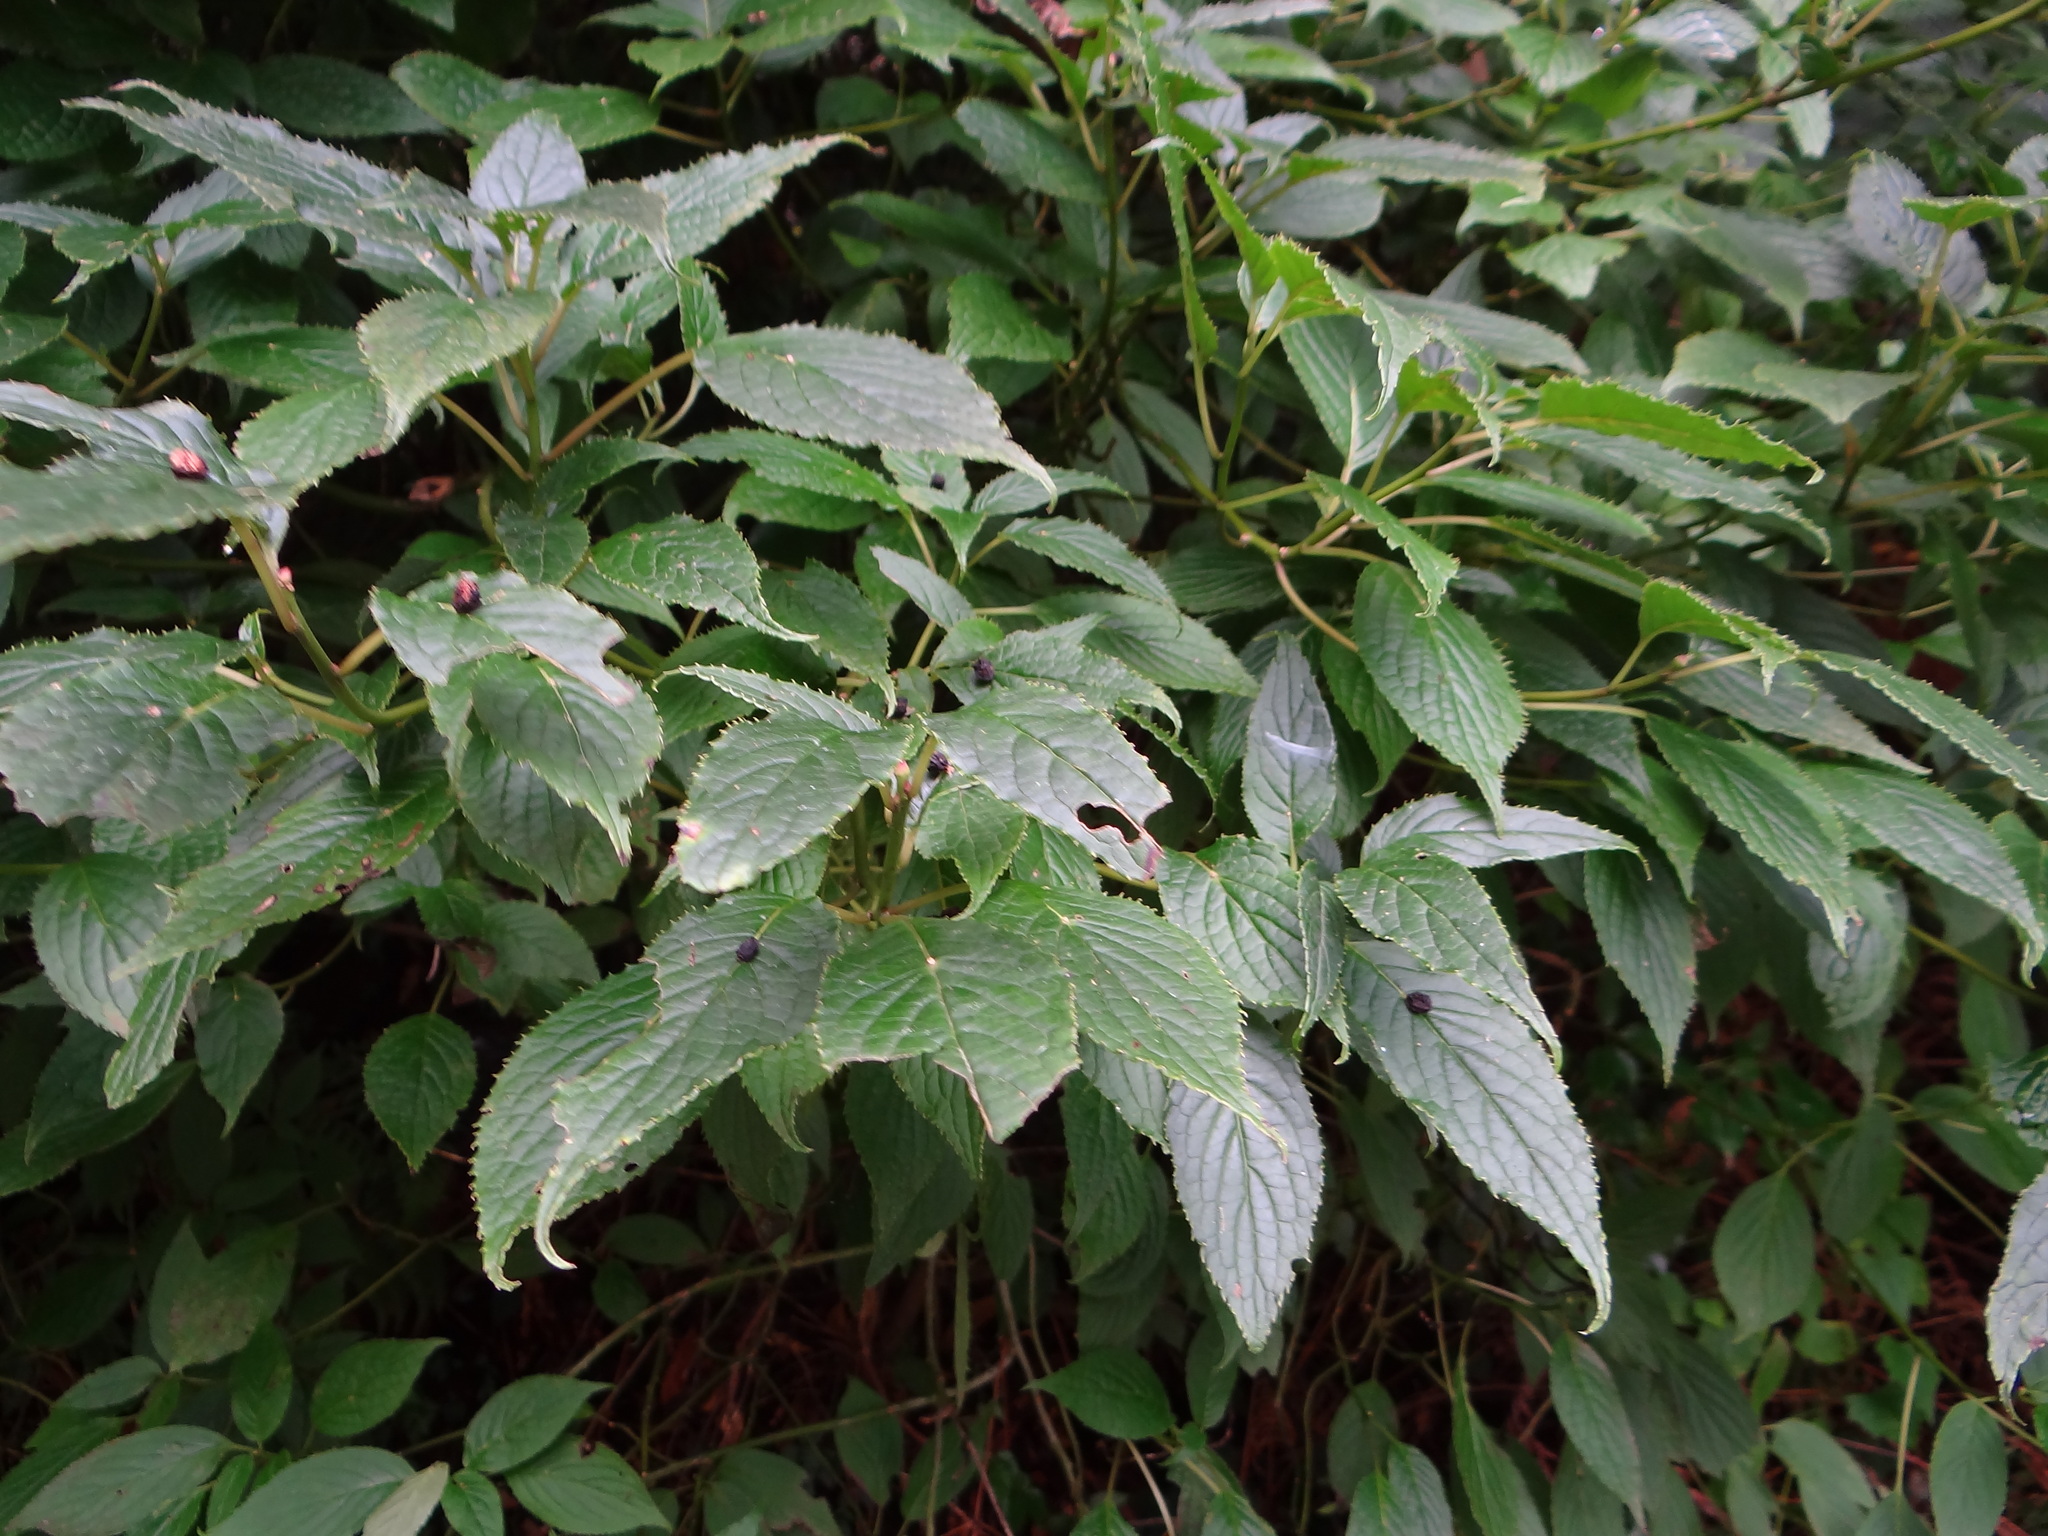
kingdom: Plantae
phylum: Tracheophyta
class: Magnoliopsida
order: Aquifoliales
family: Helwingiaceae
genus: Helwingia
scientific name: Helwingia japonica
